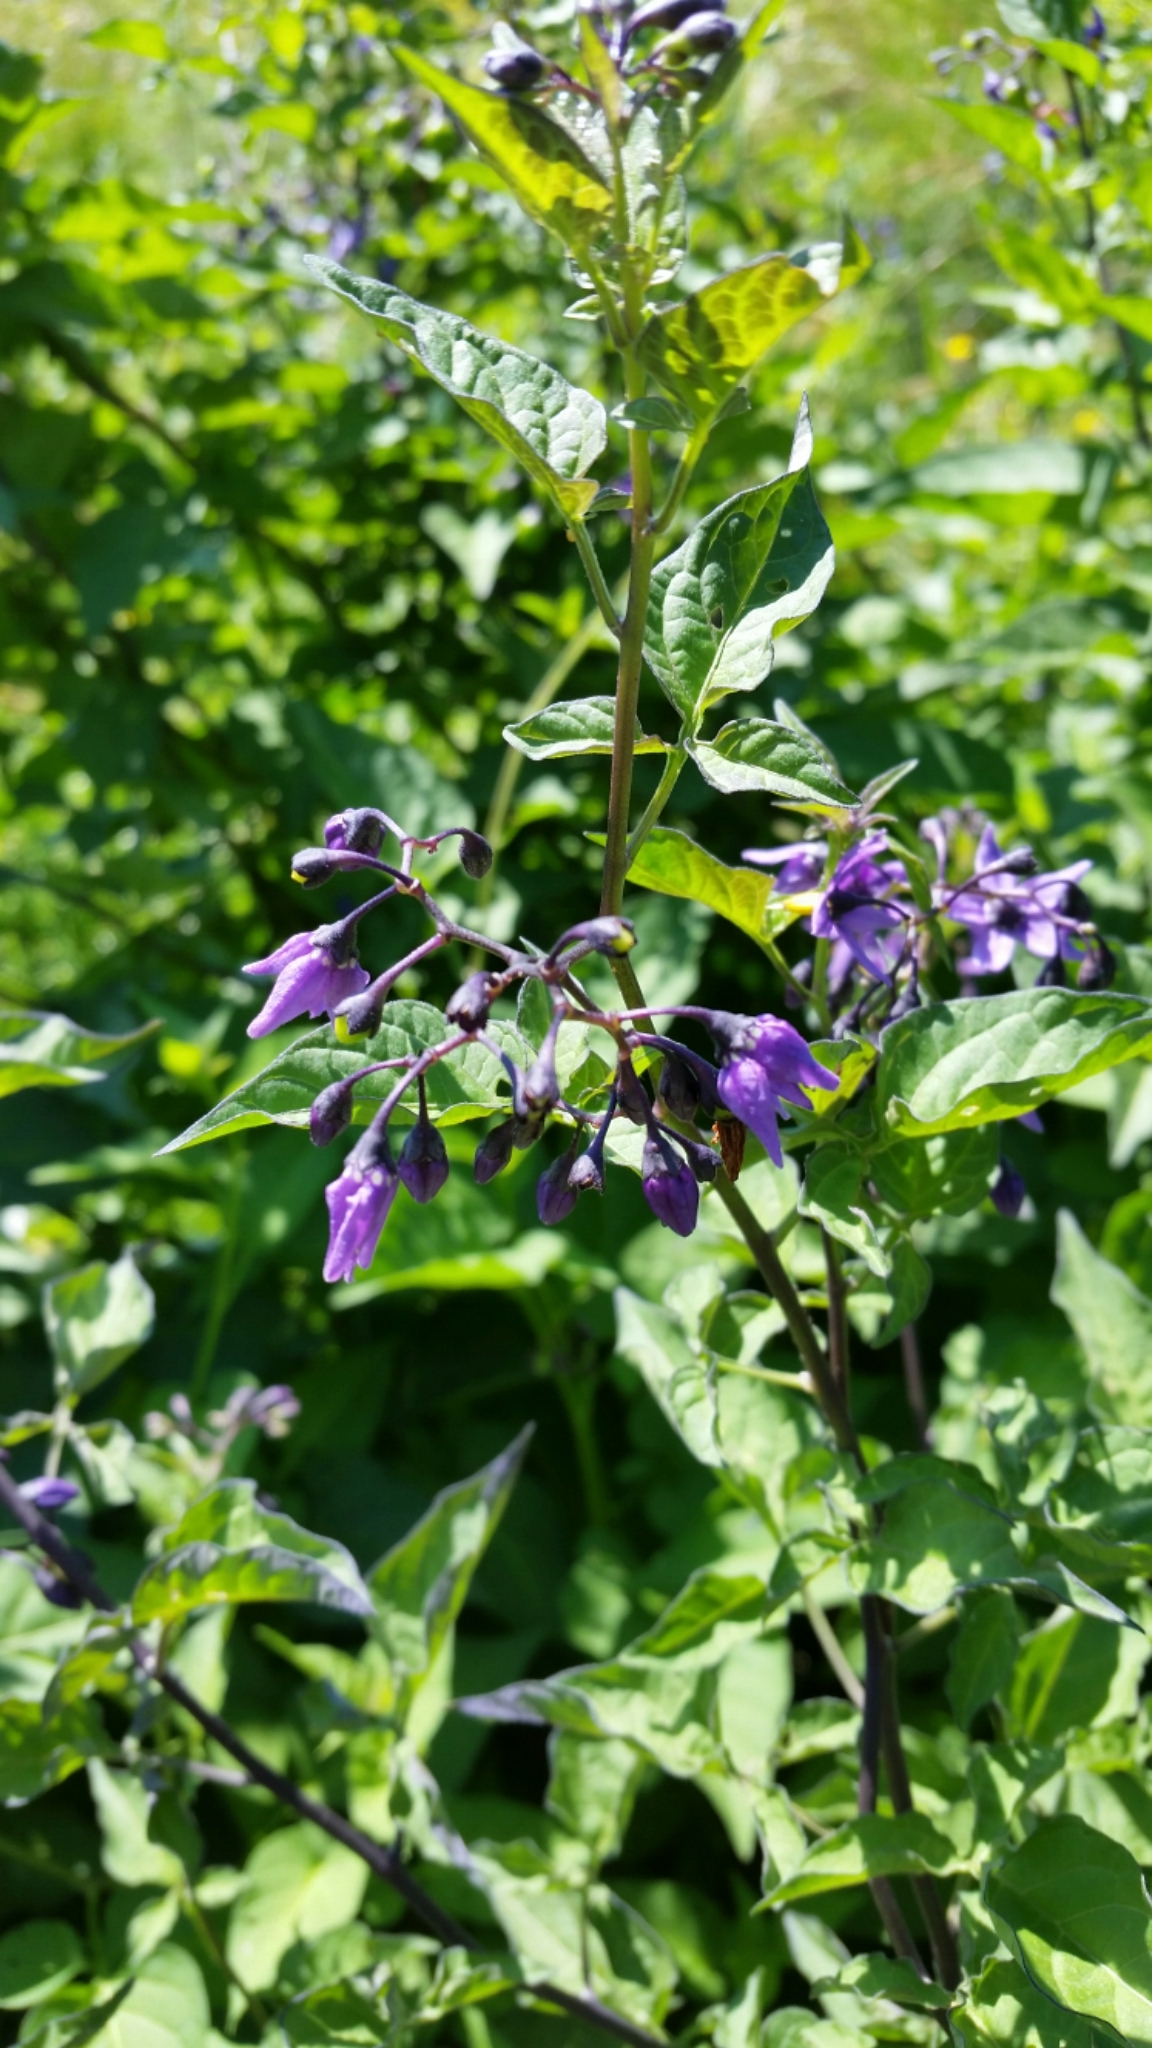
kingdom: Plantae
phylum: Tracheophyta
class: Magnoliopsida
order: Solanales
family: Solanaceae
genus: Solanum
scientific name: Solanum dulcamara
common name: Climbing nightshade
